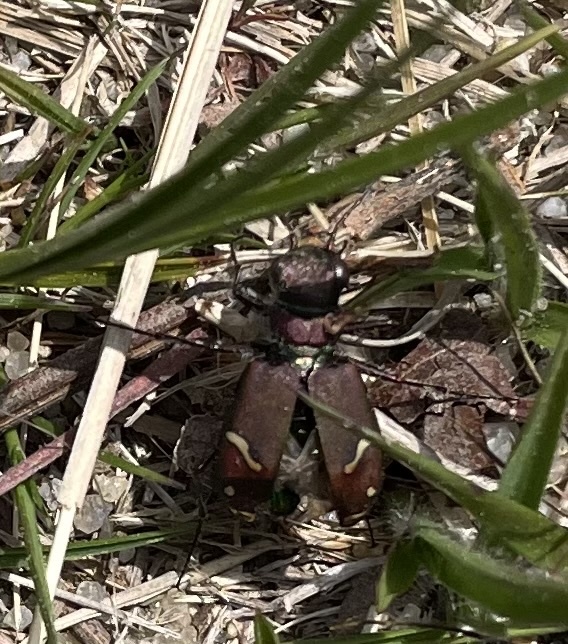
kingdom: Animalia
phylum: Arthropoda
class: Insecta
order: Coleoptera
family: Carabidae
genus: Cicindela
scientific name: Cicindela purpurea
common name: Cow path tiger beetle
